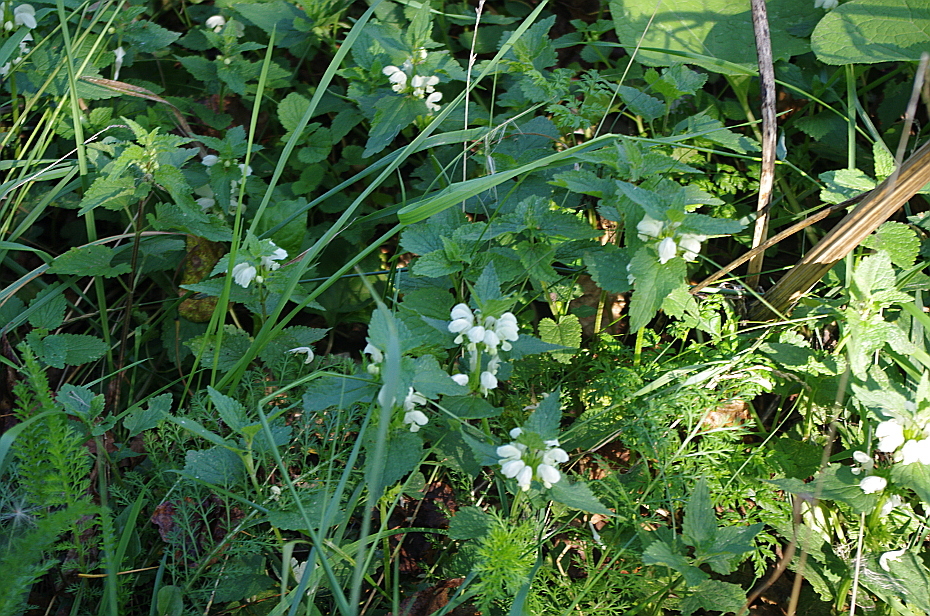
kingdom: Plantae
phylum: Tracheophyta
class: Magnoliopsida
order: Lamiales
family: Lamiaceae
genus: Lamium
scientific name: Lamium album
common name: White dead-nettle
